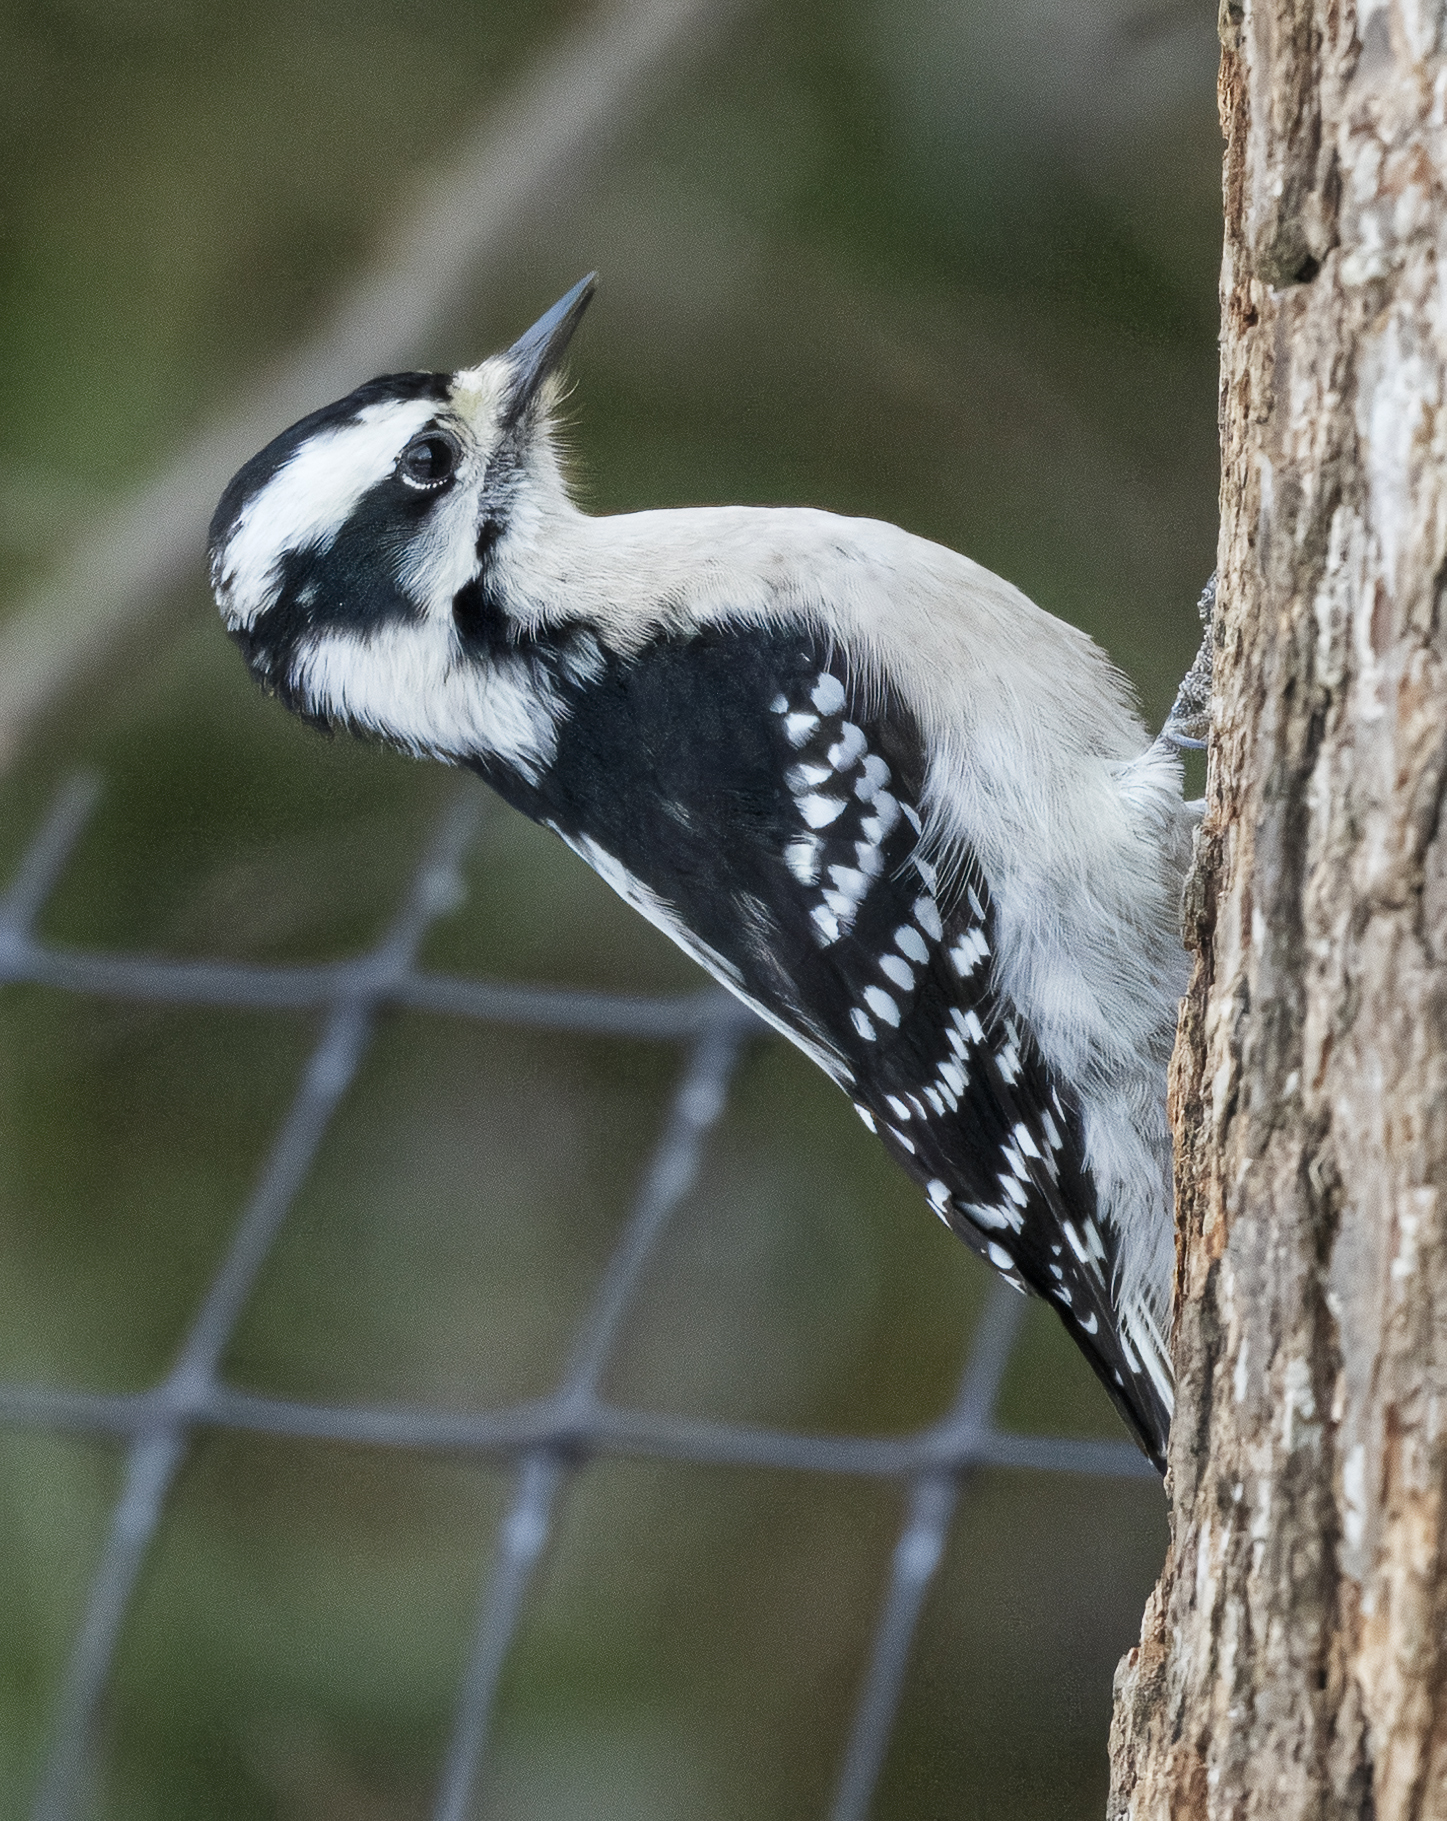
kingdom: Animalia
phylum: Chordata
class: Aves
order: Piciformes
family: Picidae
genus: Dryobates
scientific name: Dryobates pubescens
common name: Downy woodpecker
